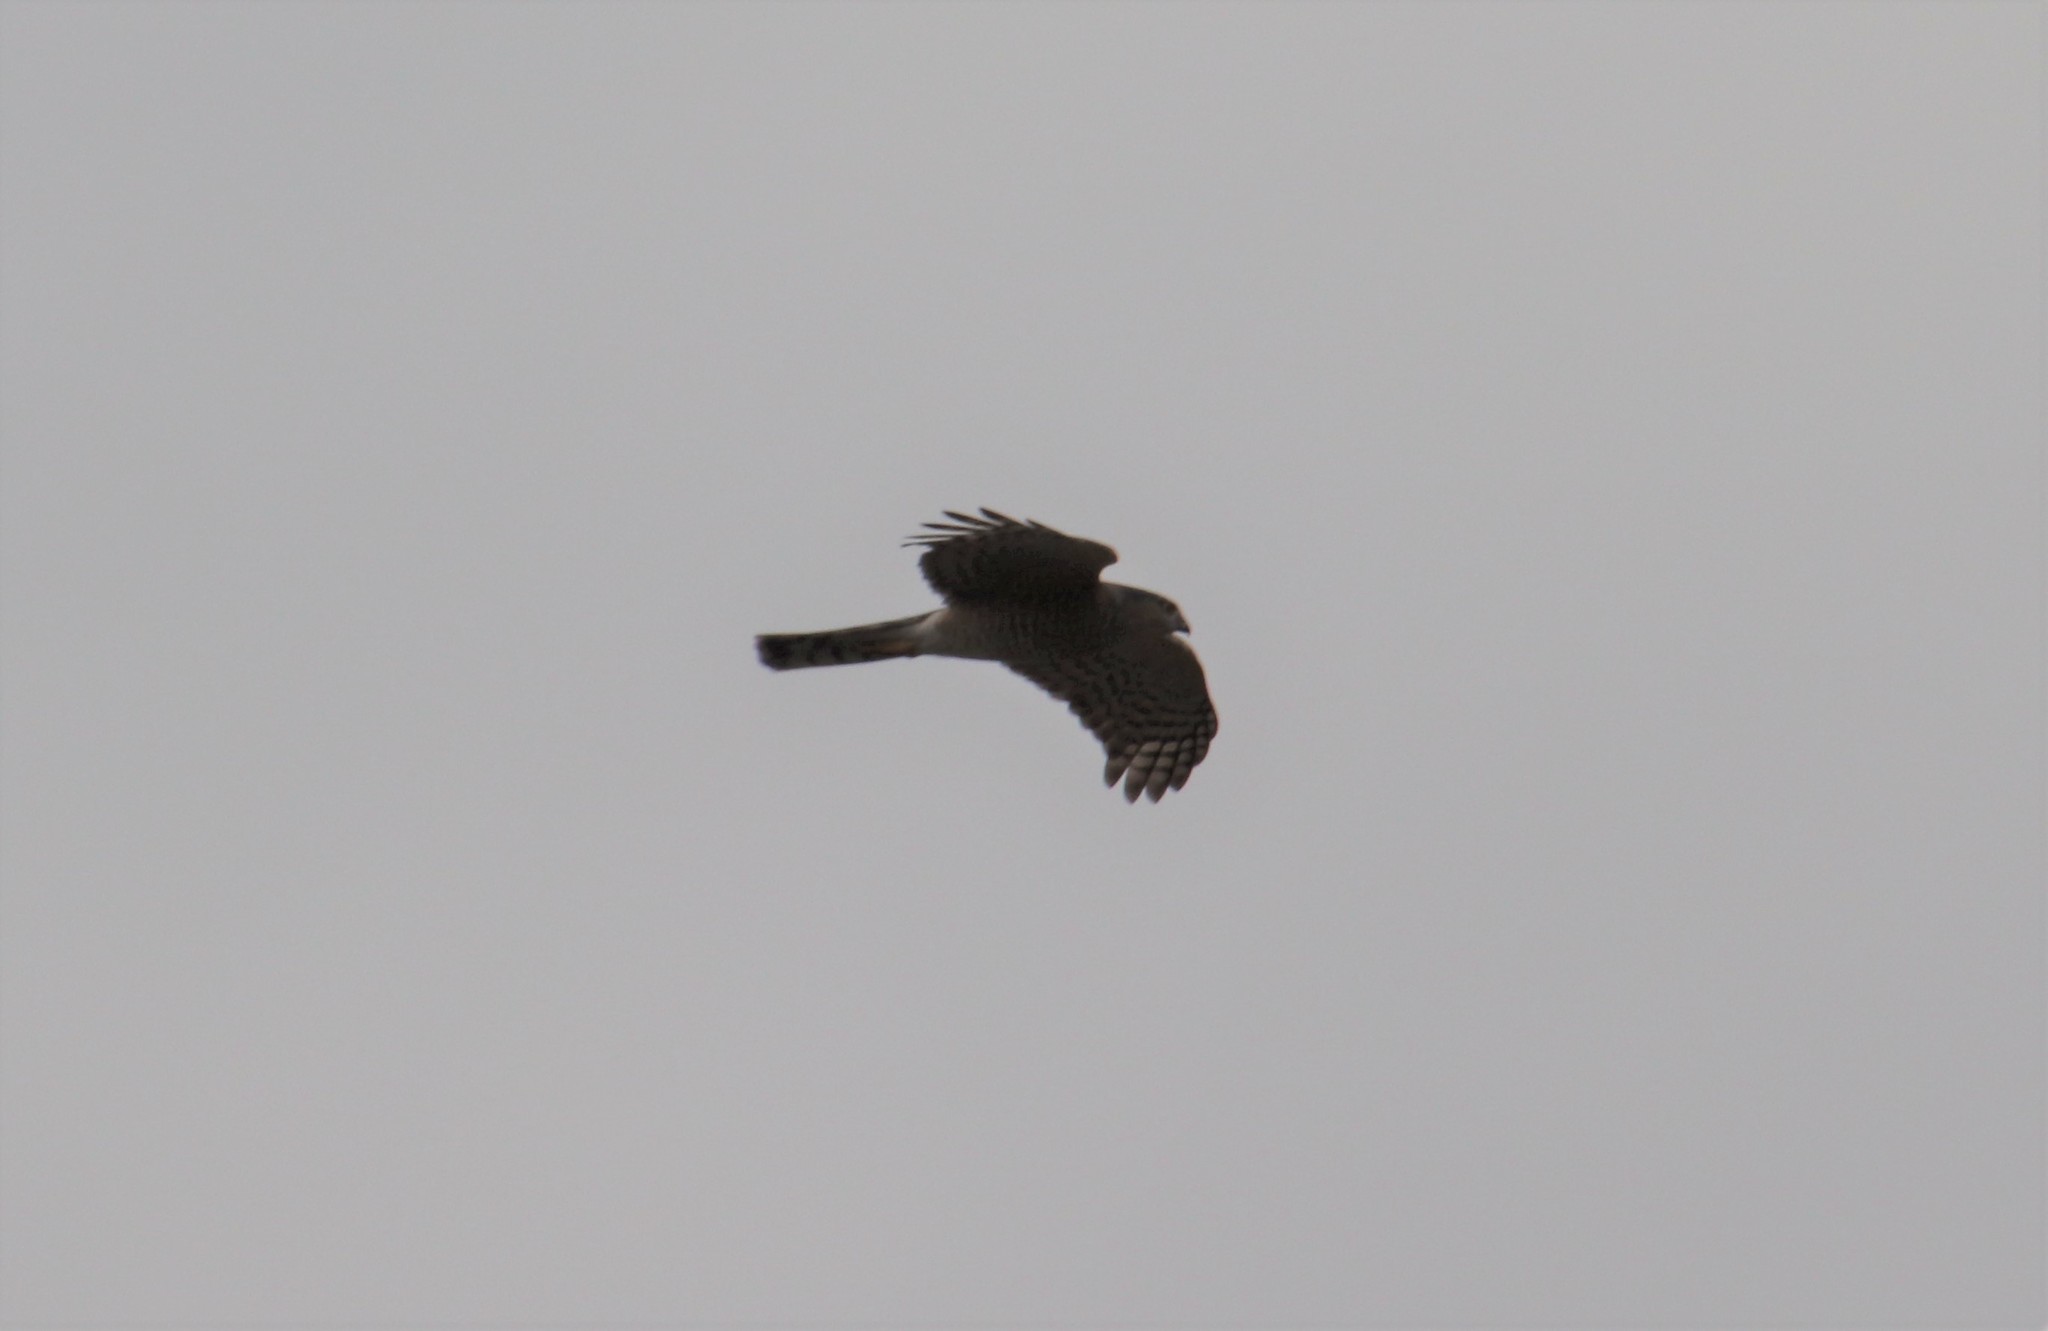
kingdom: Animalia
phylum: Chordata
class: Aves
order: Accipitriformes
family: Accipitridae
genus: Accipiter
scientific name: Accipiter cooperii
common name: Cooper's hawk
